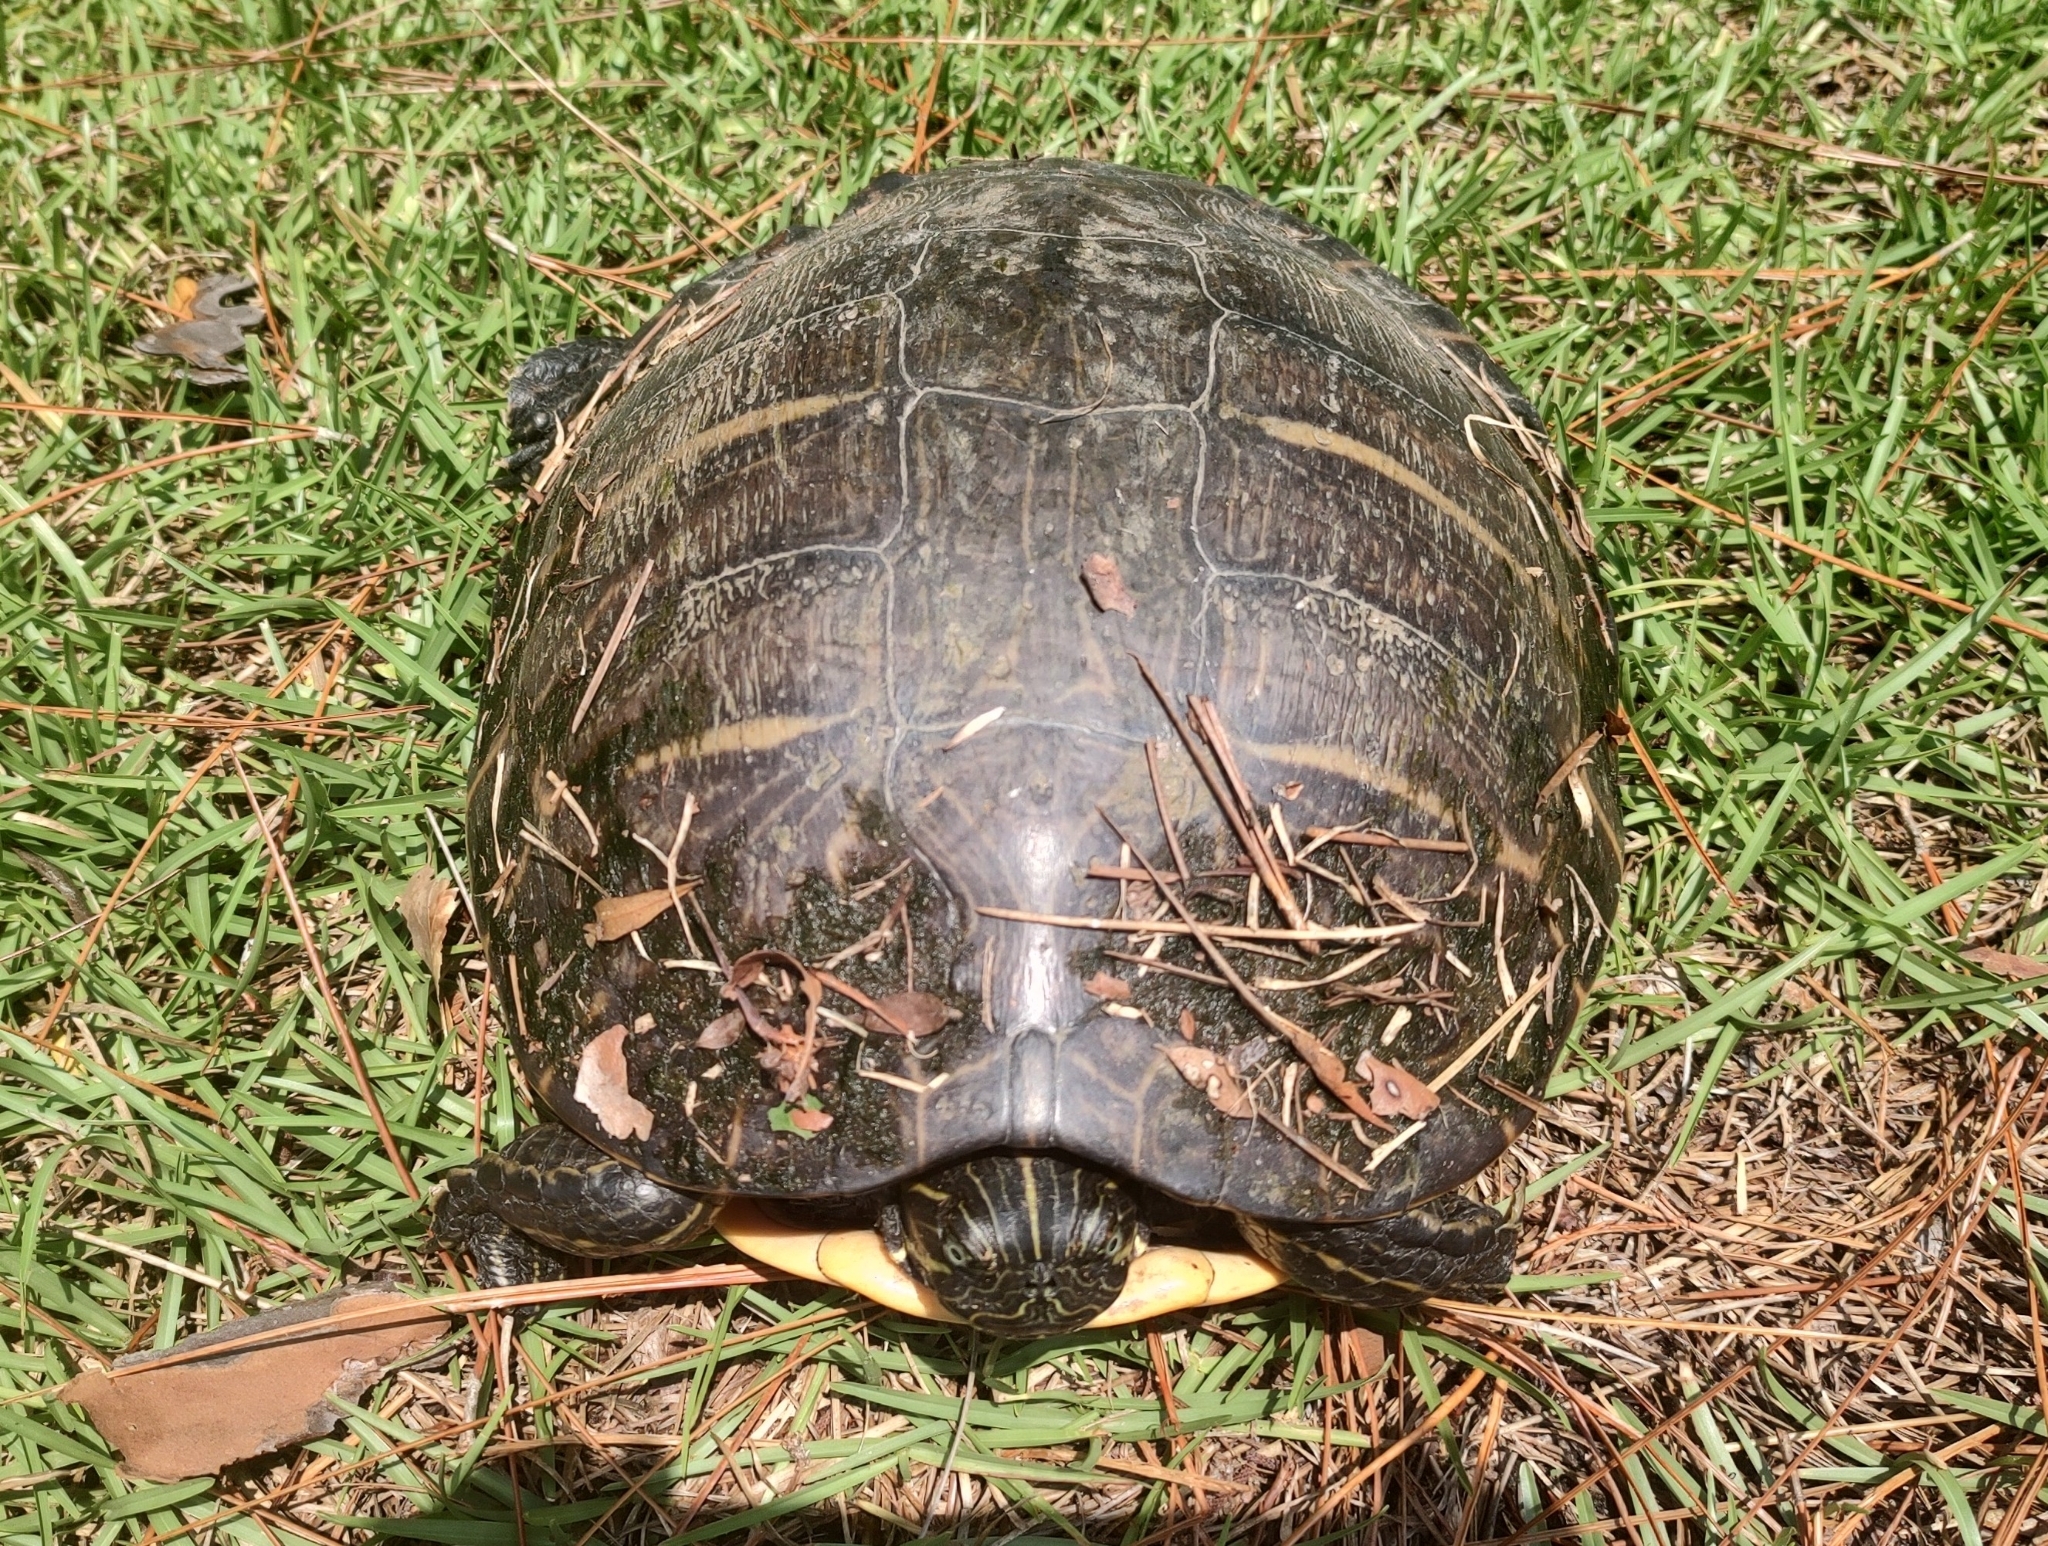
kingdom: Animalia
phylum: Chordata
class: Testudines
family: Emydidae
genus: Pseudemys
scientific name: Pseudemys concinna
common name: Eastern river cooter
